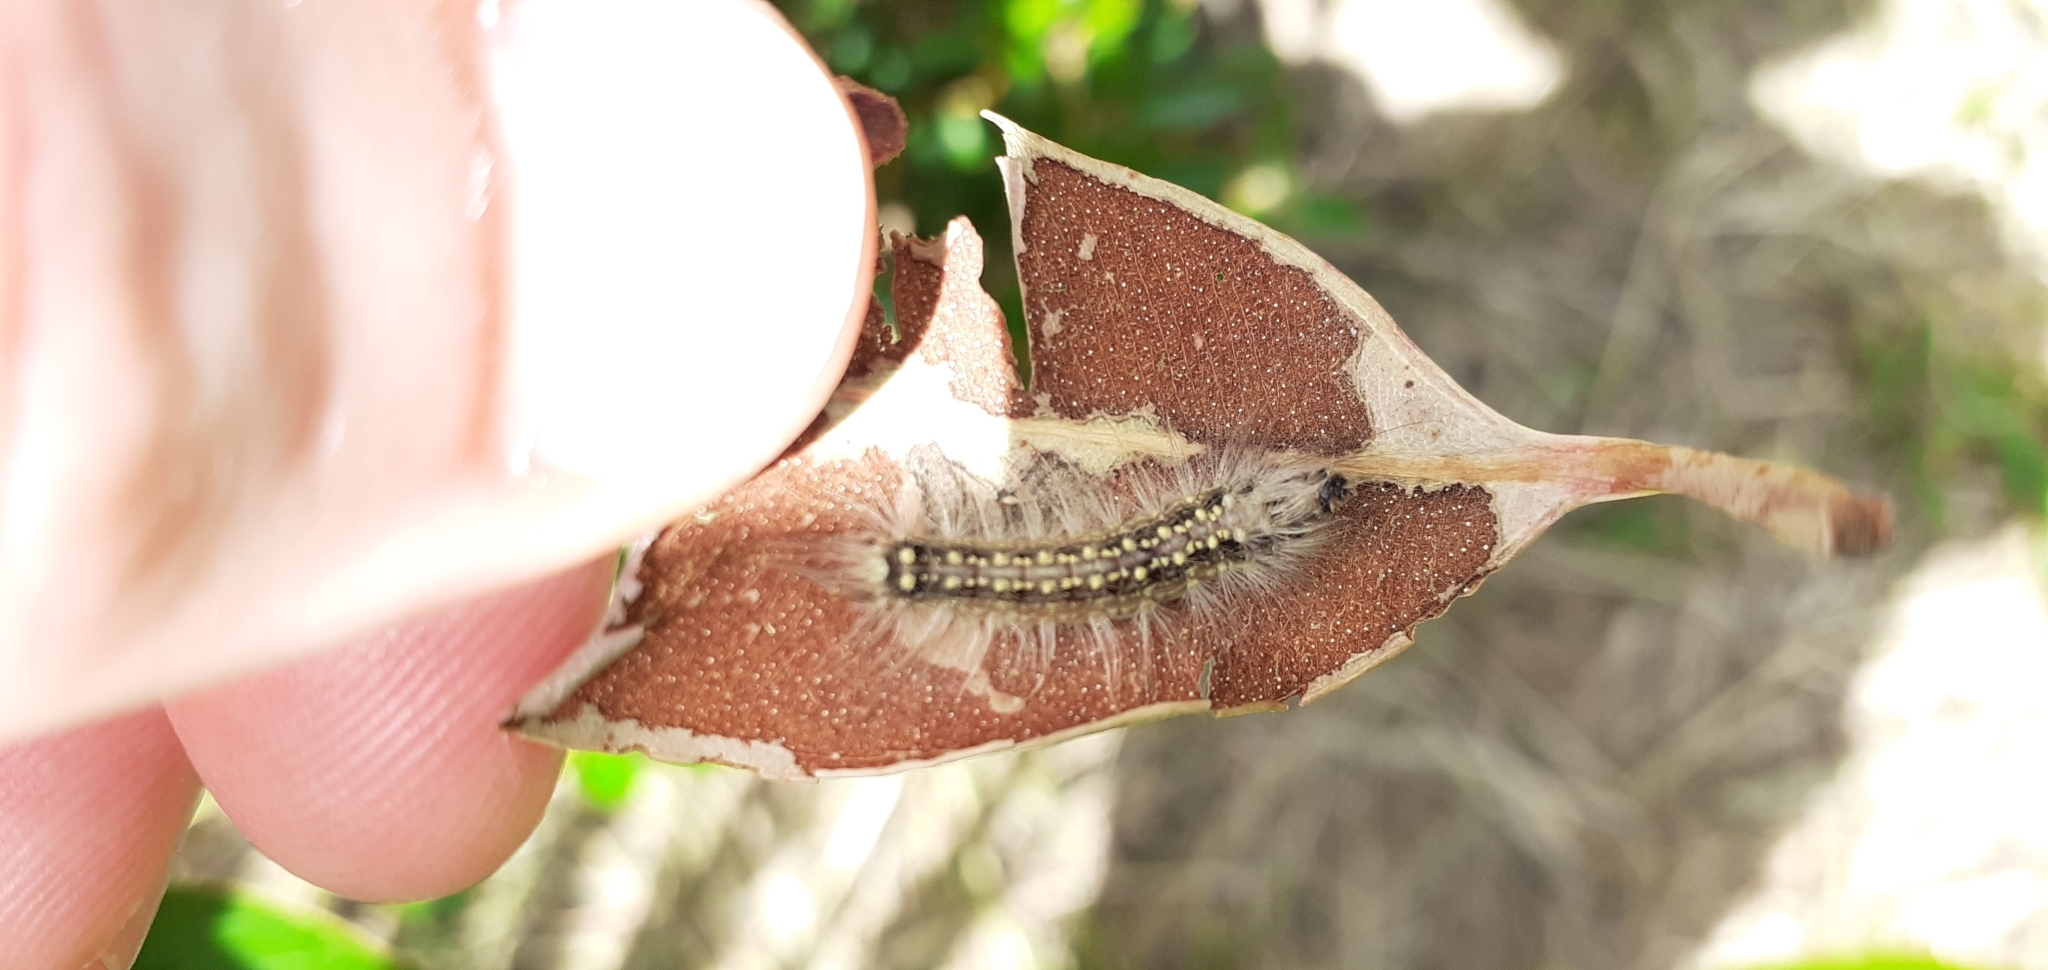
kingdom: Animalia
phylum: Arthropoda
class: Insecta
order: Lepidoptera
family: Nolidae
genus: Uraba
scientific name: Uraba lugens
